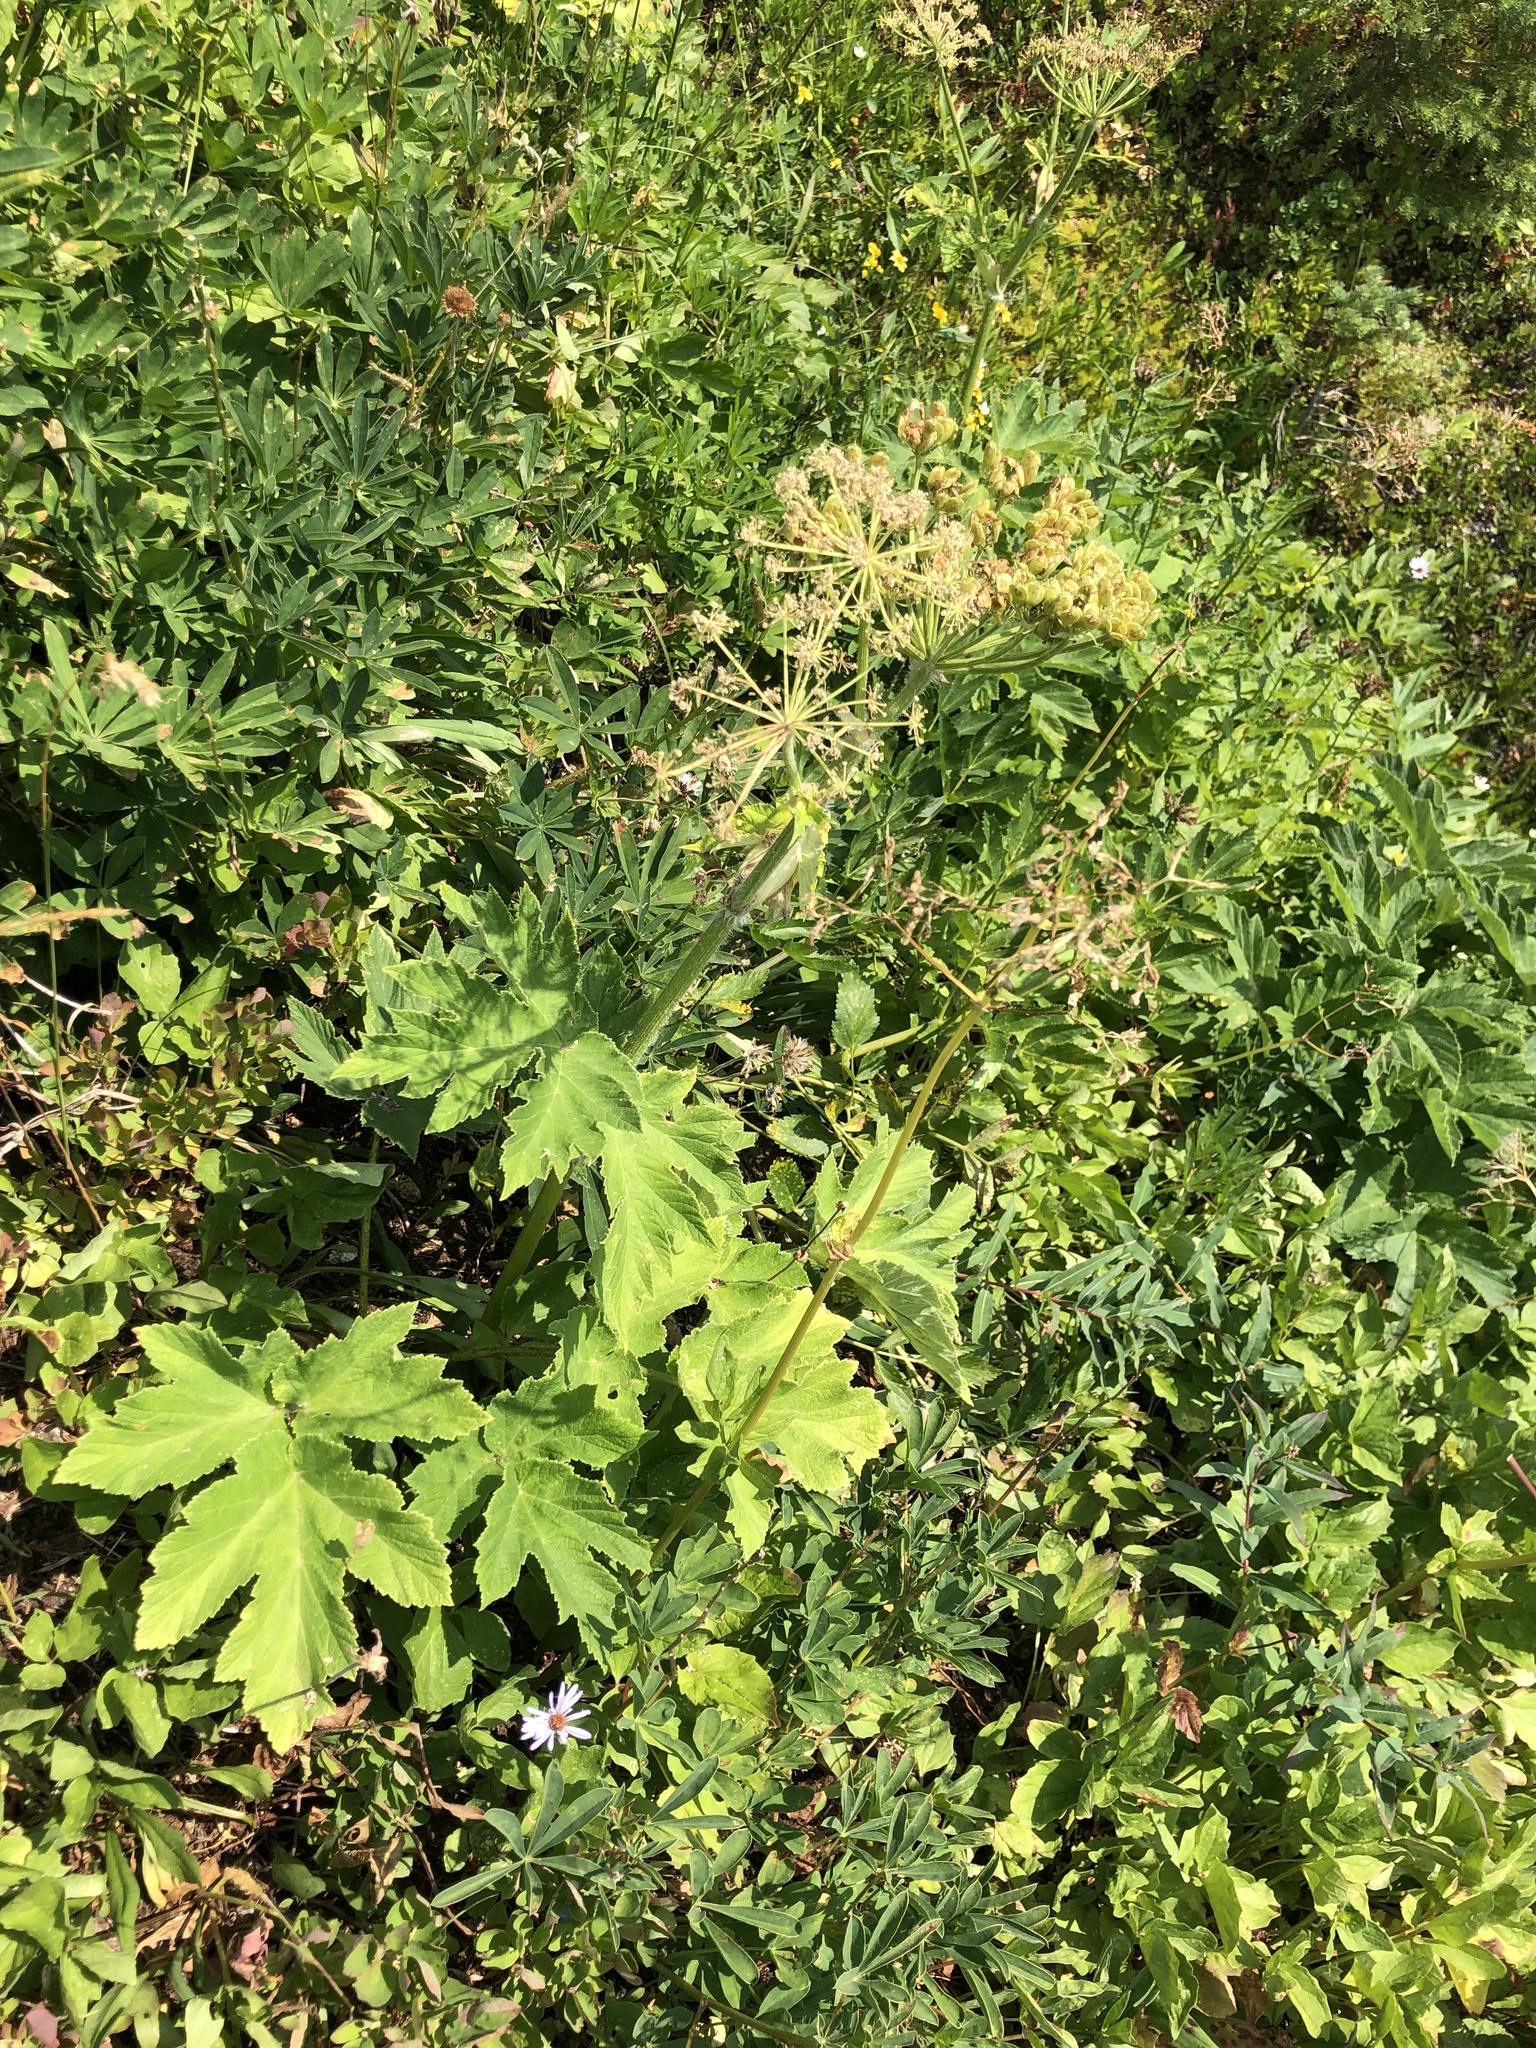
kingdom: Plantae
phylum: Tracheophyta
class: Magnoliopsida
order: Apiales
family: Apiaceae
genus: Heracleum
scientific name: Heracleum maximum
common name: American cow parsnip
